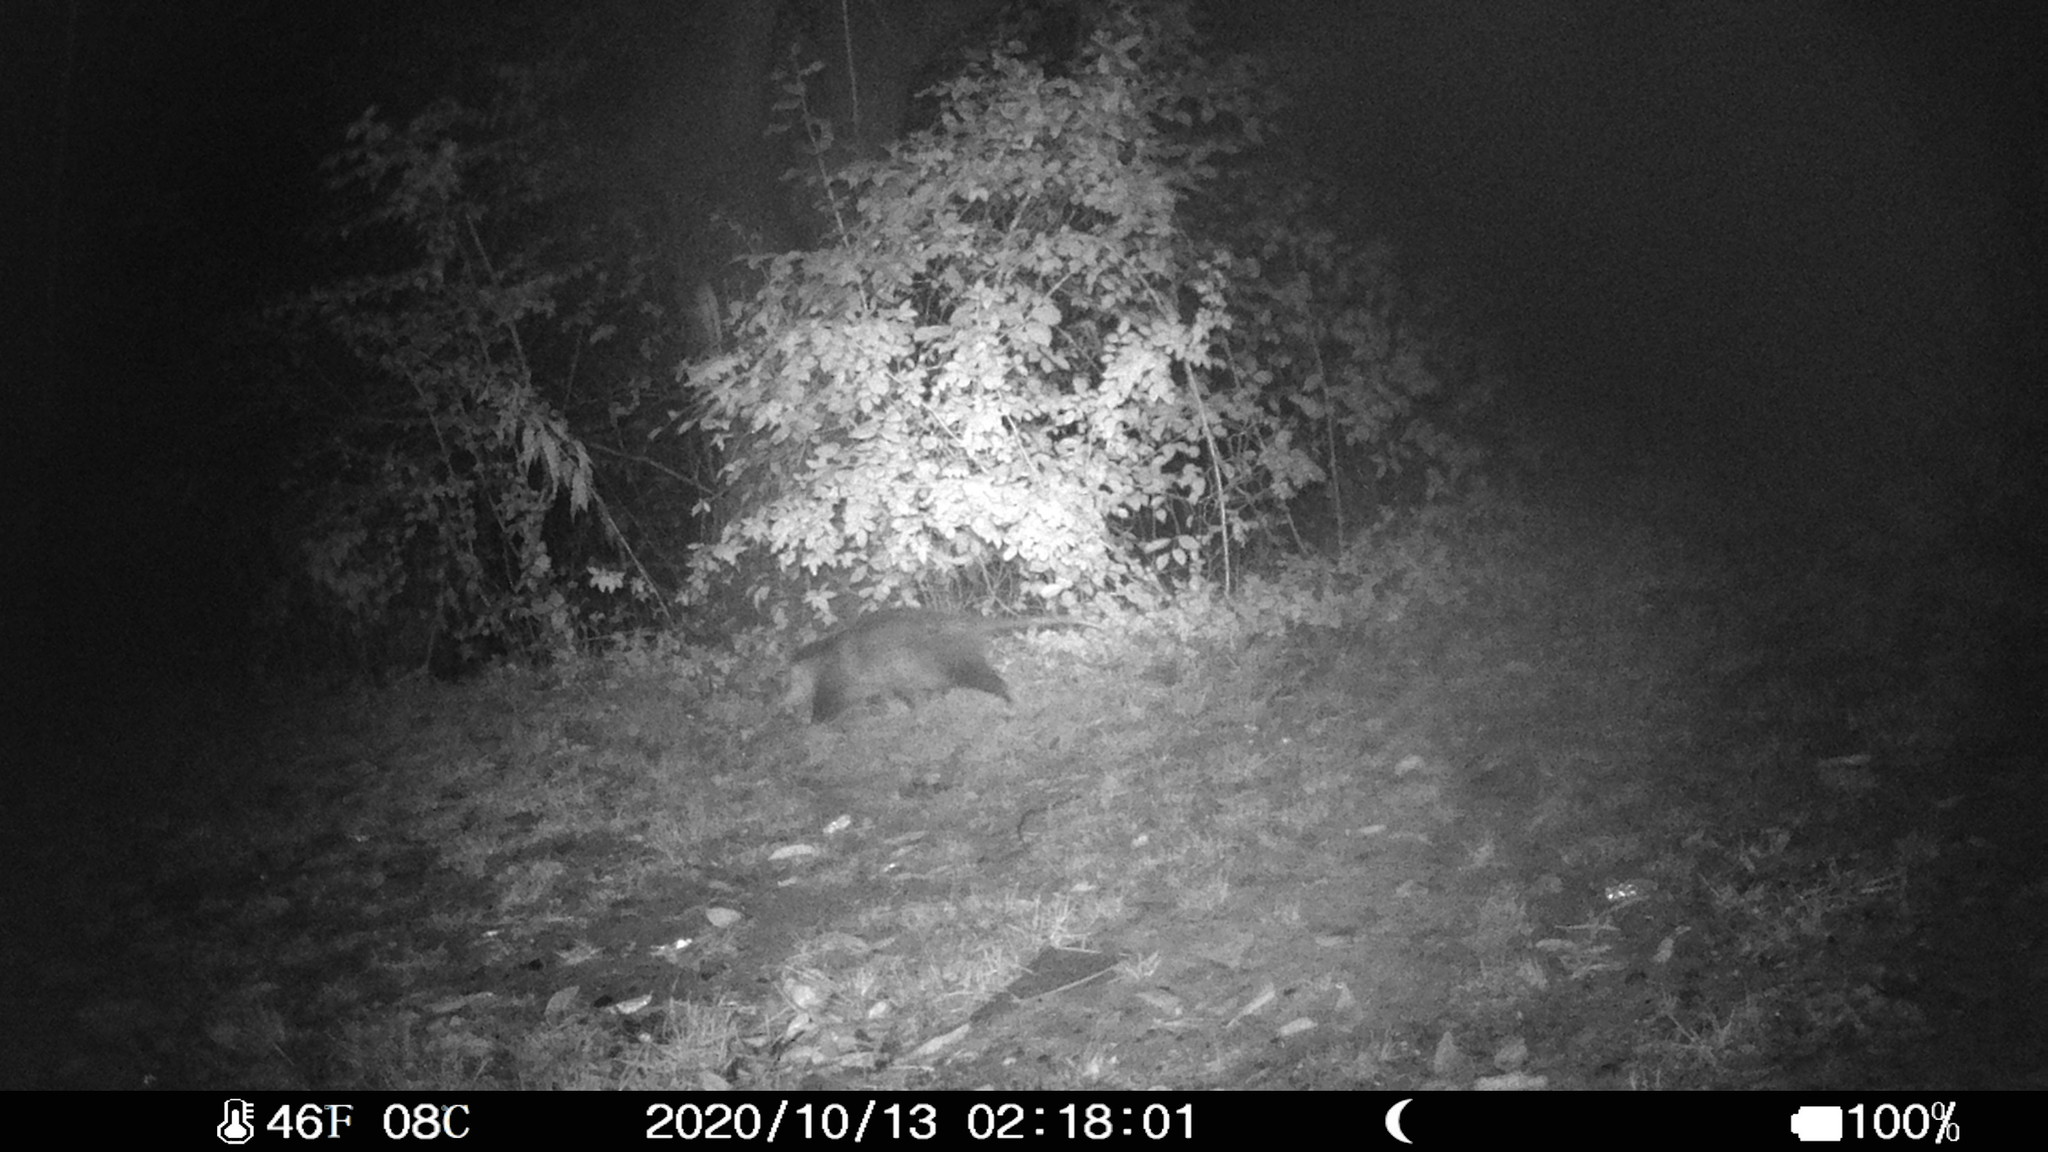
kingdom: Animalia
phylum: Chordata
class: Mammalia
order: Didelphimorphia
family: Didelphidae
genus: Didelphis
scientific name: Didelphis virginiana
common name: Virginia opossum
